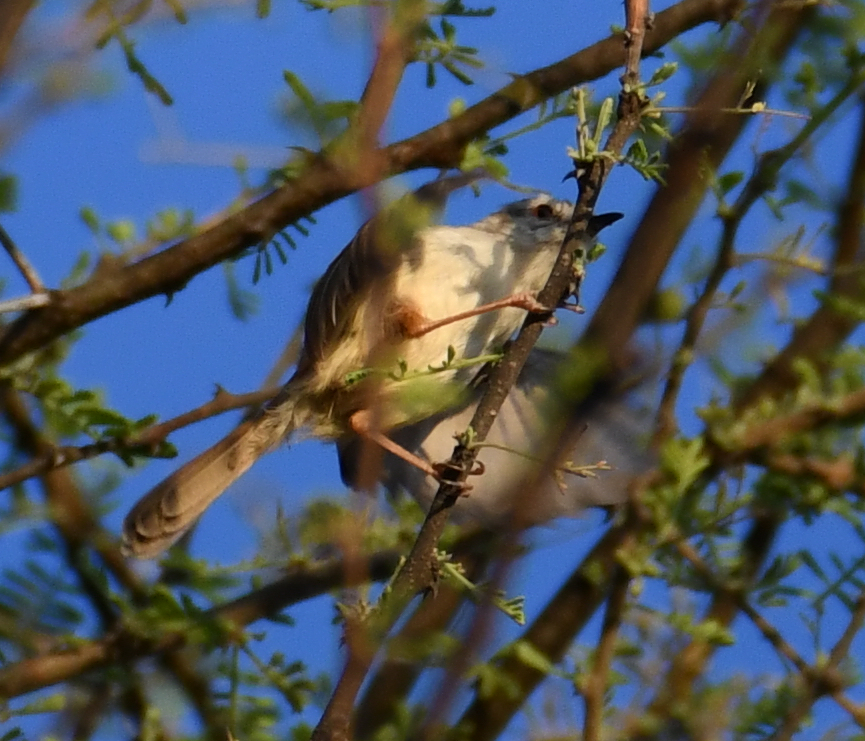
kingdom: Animalia
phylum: Chordata
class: Aves
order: Passeriformes
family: Cisticolidae
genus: Prinia
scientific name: Prinia subflava
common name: Tawny-flanked prinia
